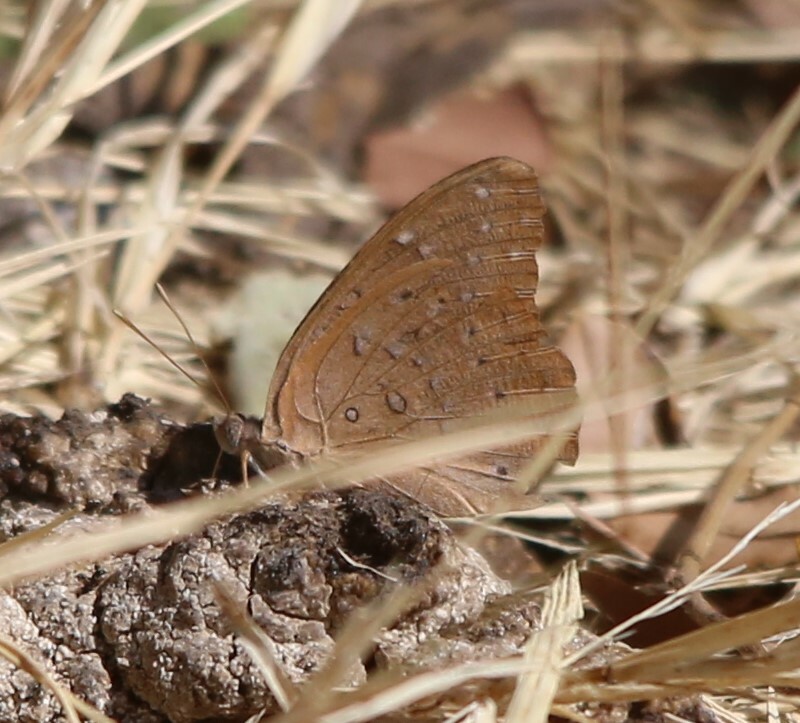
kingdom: Animalia
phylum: Arthropoda
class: Insecta
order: Lepidoptera
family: Nymphalidae
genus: Hamanumida
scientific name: Hamanumida daedalus
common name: Guinea-fowl butterfly
